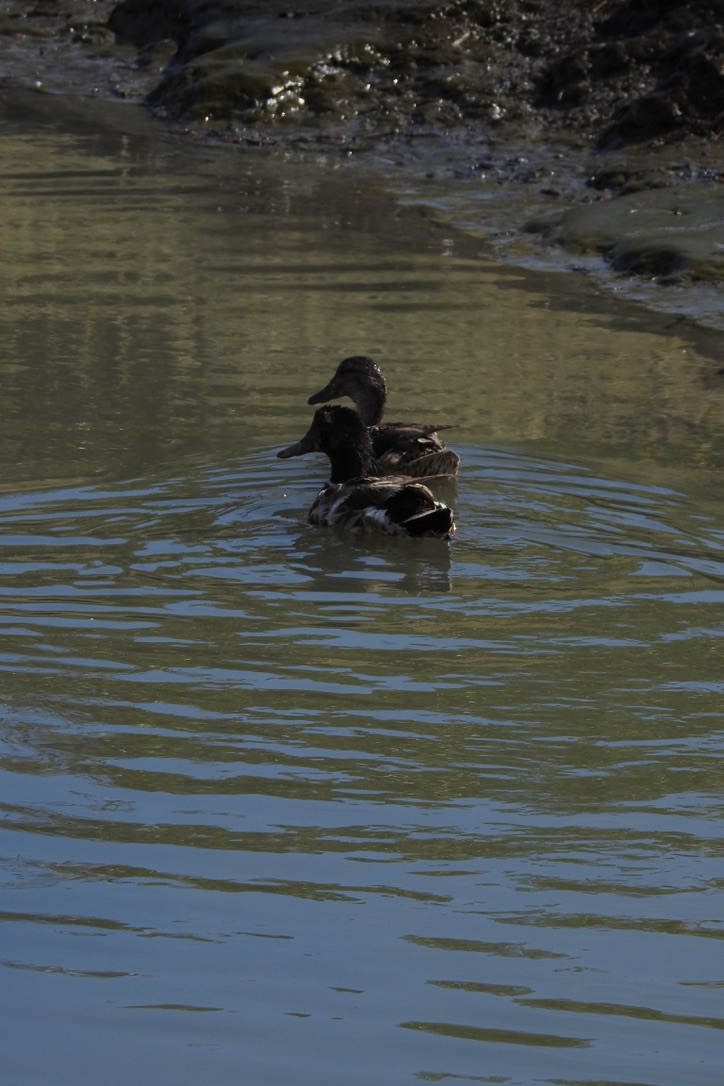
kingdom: Animalia
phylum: Chordata
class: Aves
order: Anseriformes
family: Anatidae
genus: Anas
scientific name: Anas platyrhynchos
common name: Mallard
